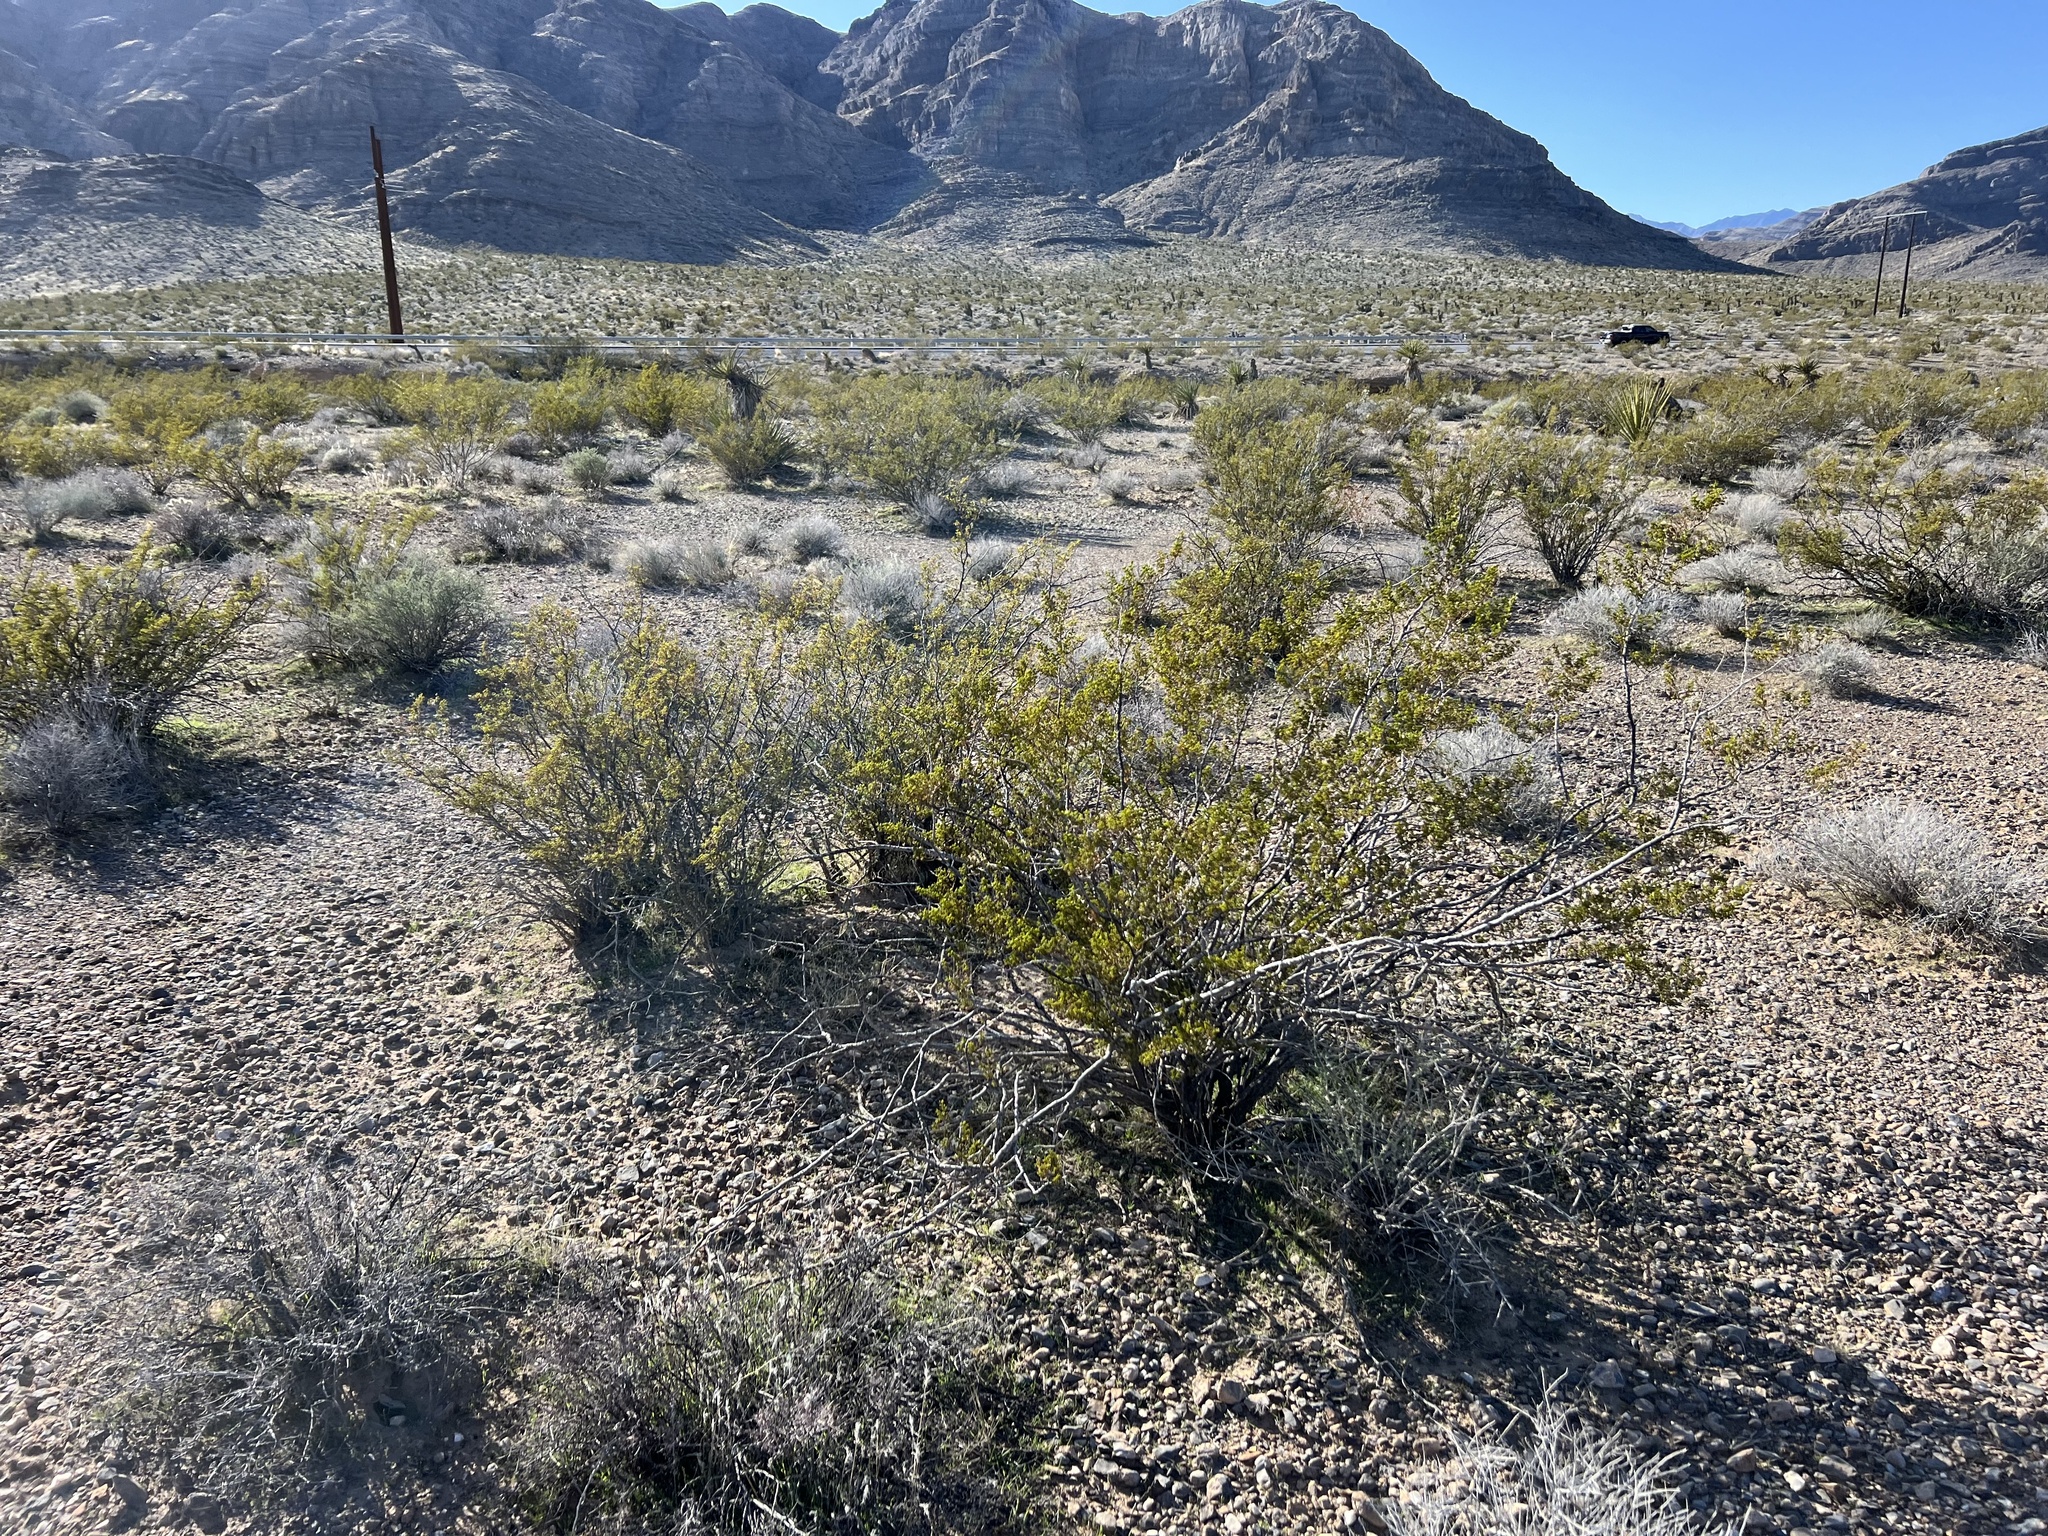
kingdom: Plantae
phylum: Tracheophyta
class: Magnoliopsida
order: Zygophyllales
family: Zygophyllaceae
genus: Larrea
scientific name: Larrea tridentata
